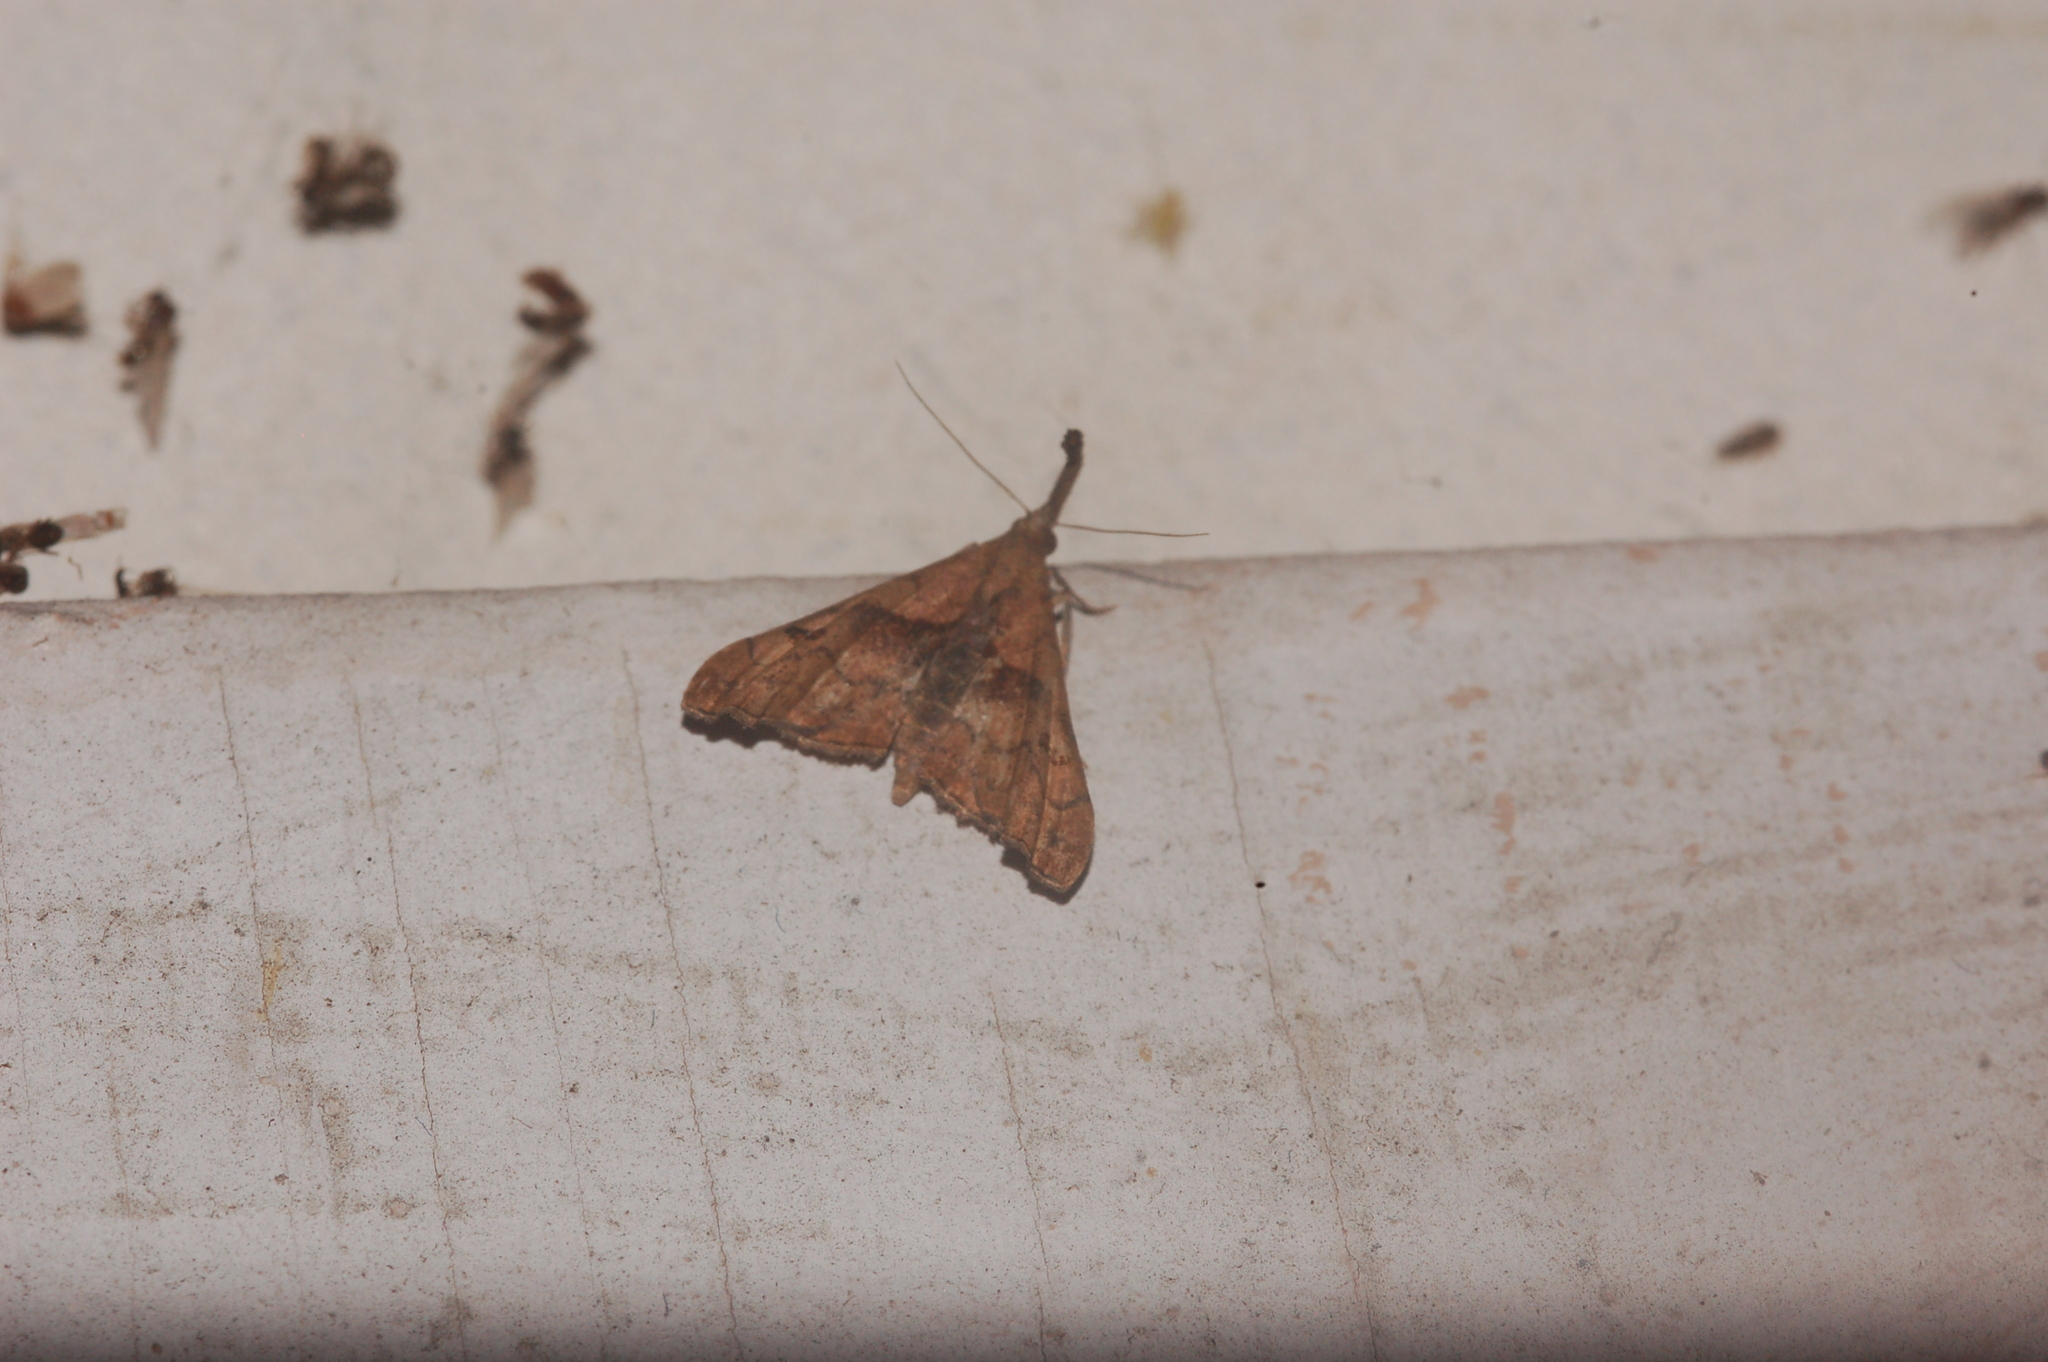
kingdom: Animalia
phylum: Arthropoda
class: Insecta
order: Lepidoptera
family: Erebidae
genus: Palthis
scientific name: Palthis angulalis
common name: Dark-spotted palthis moth
